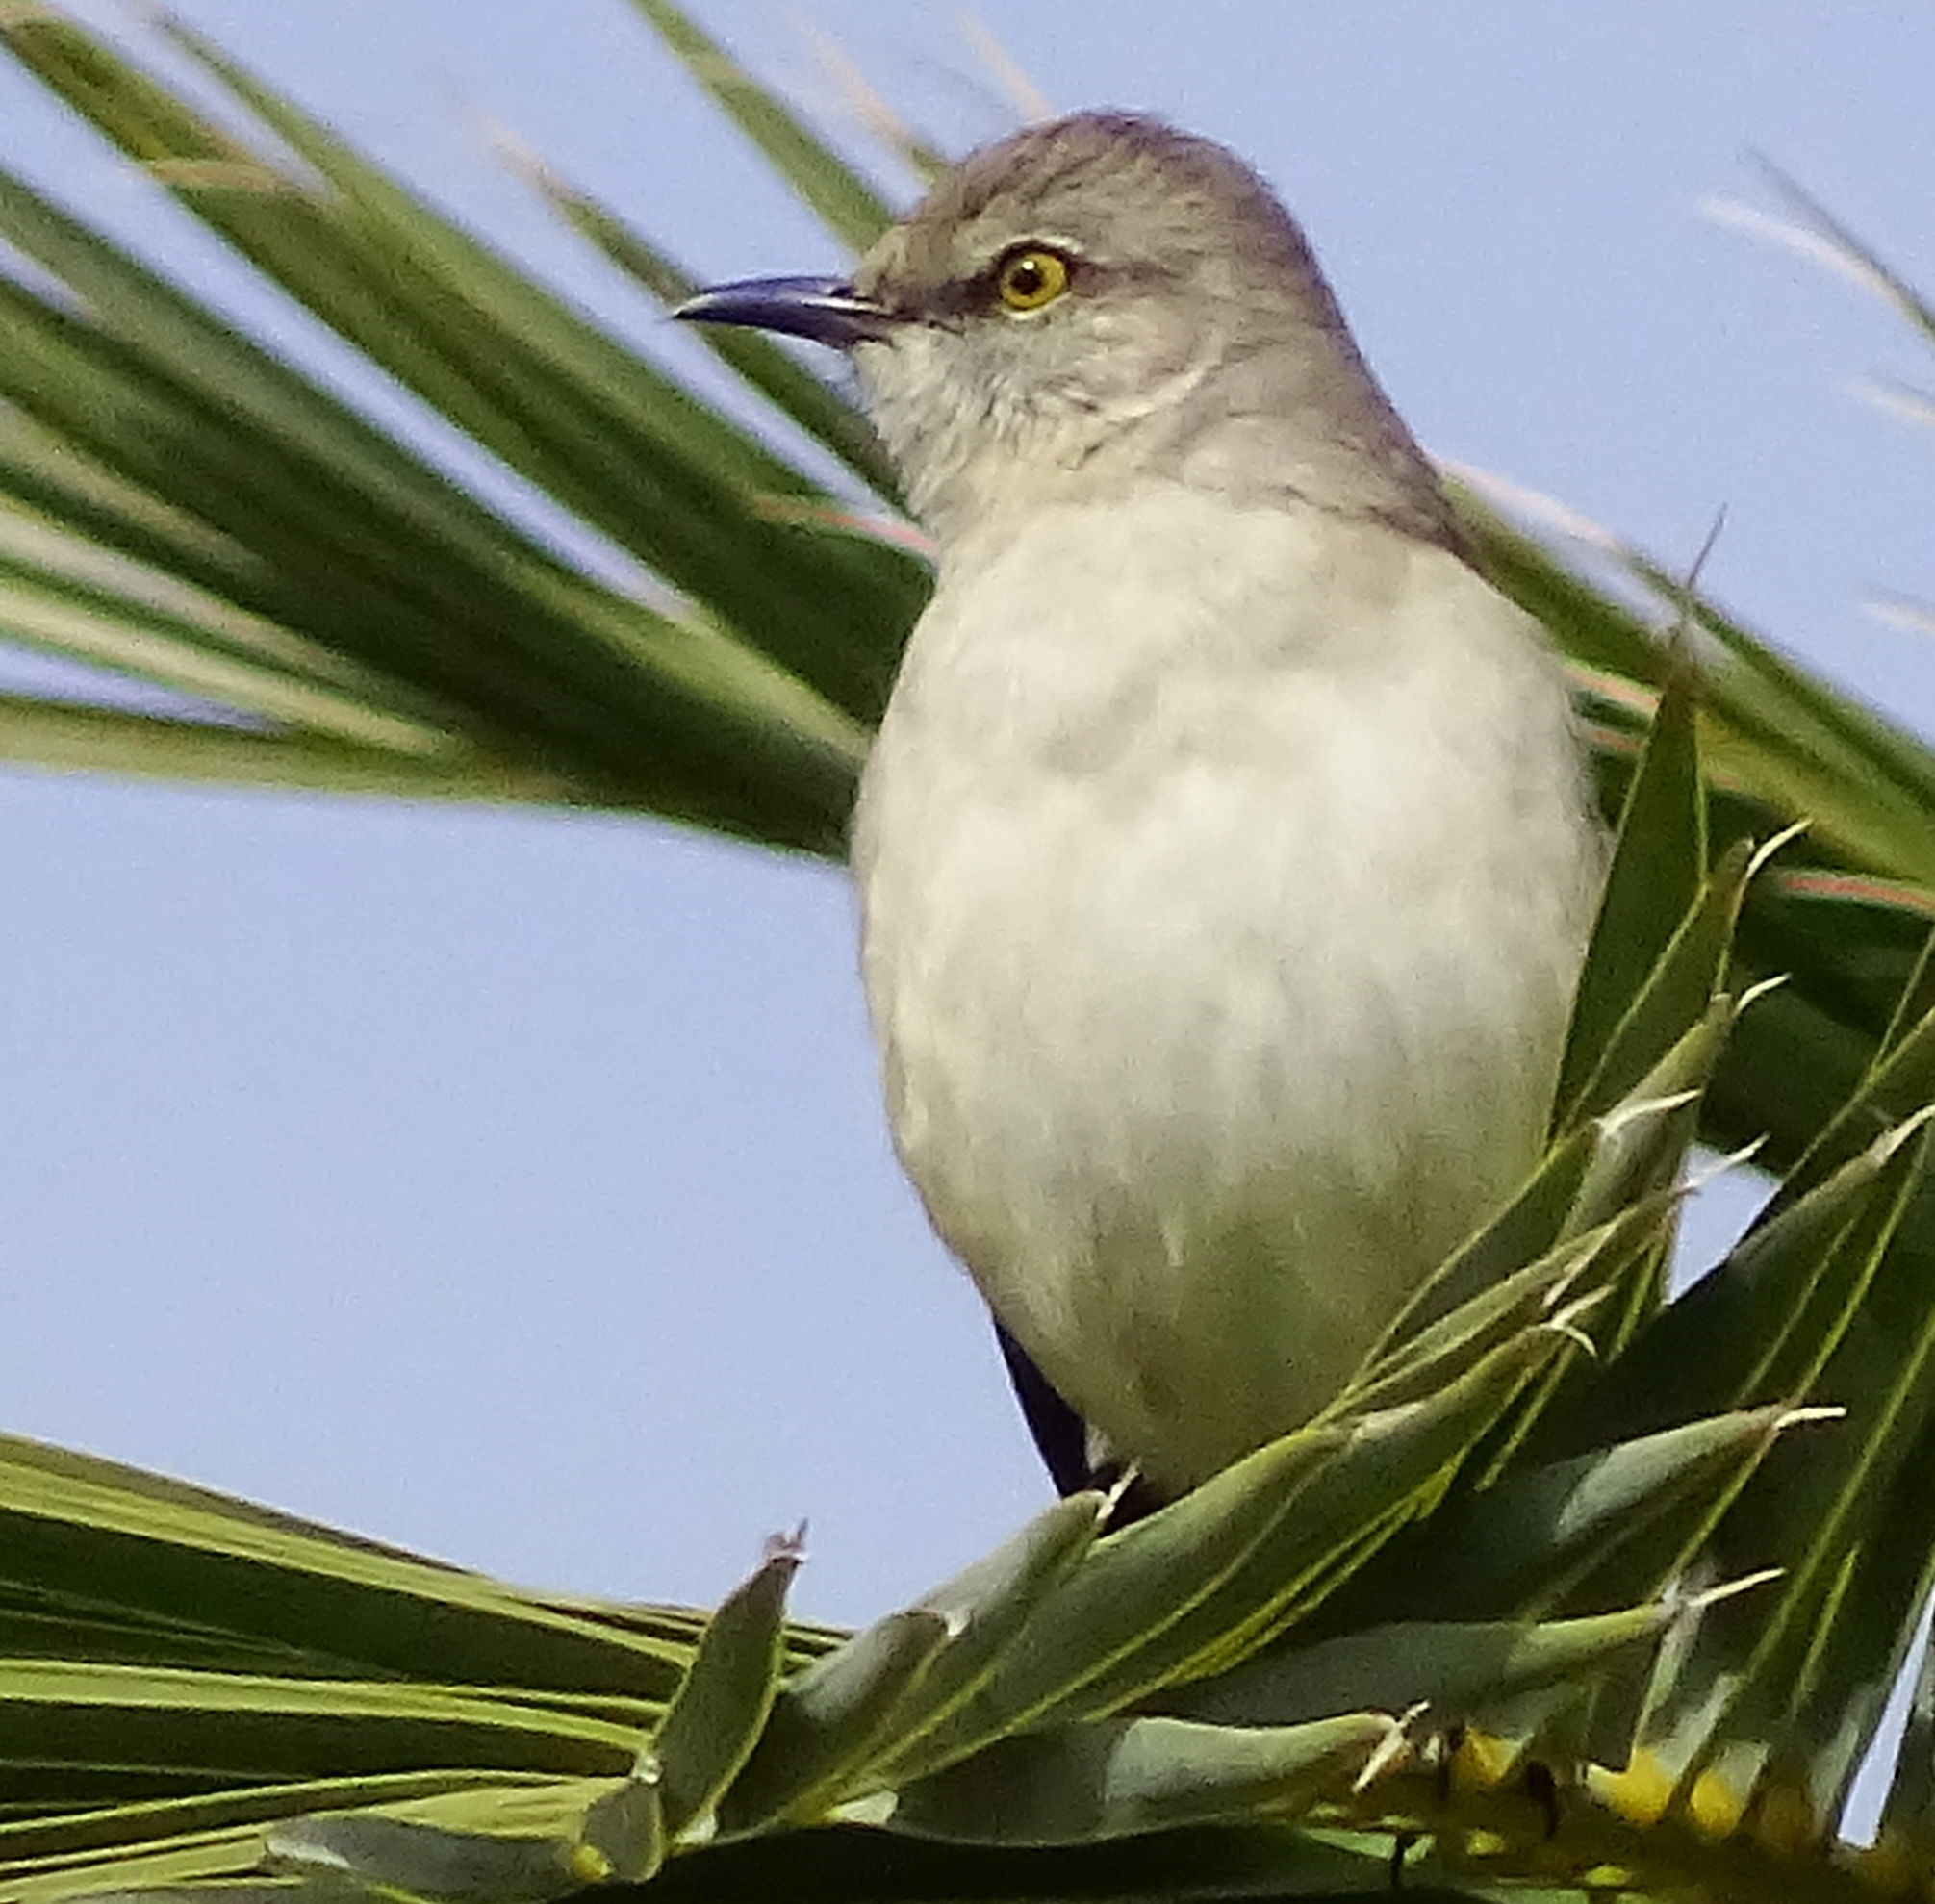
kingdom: Animalia
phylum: Chordata
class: Aves
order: Passeriformes
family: Mimidae
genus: Mimus
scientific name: Mimus polyglottos
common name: Northern mockingbird
